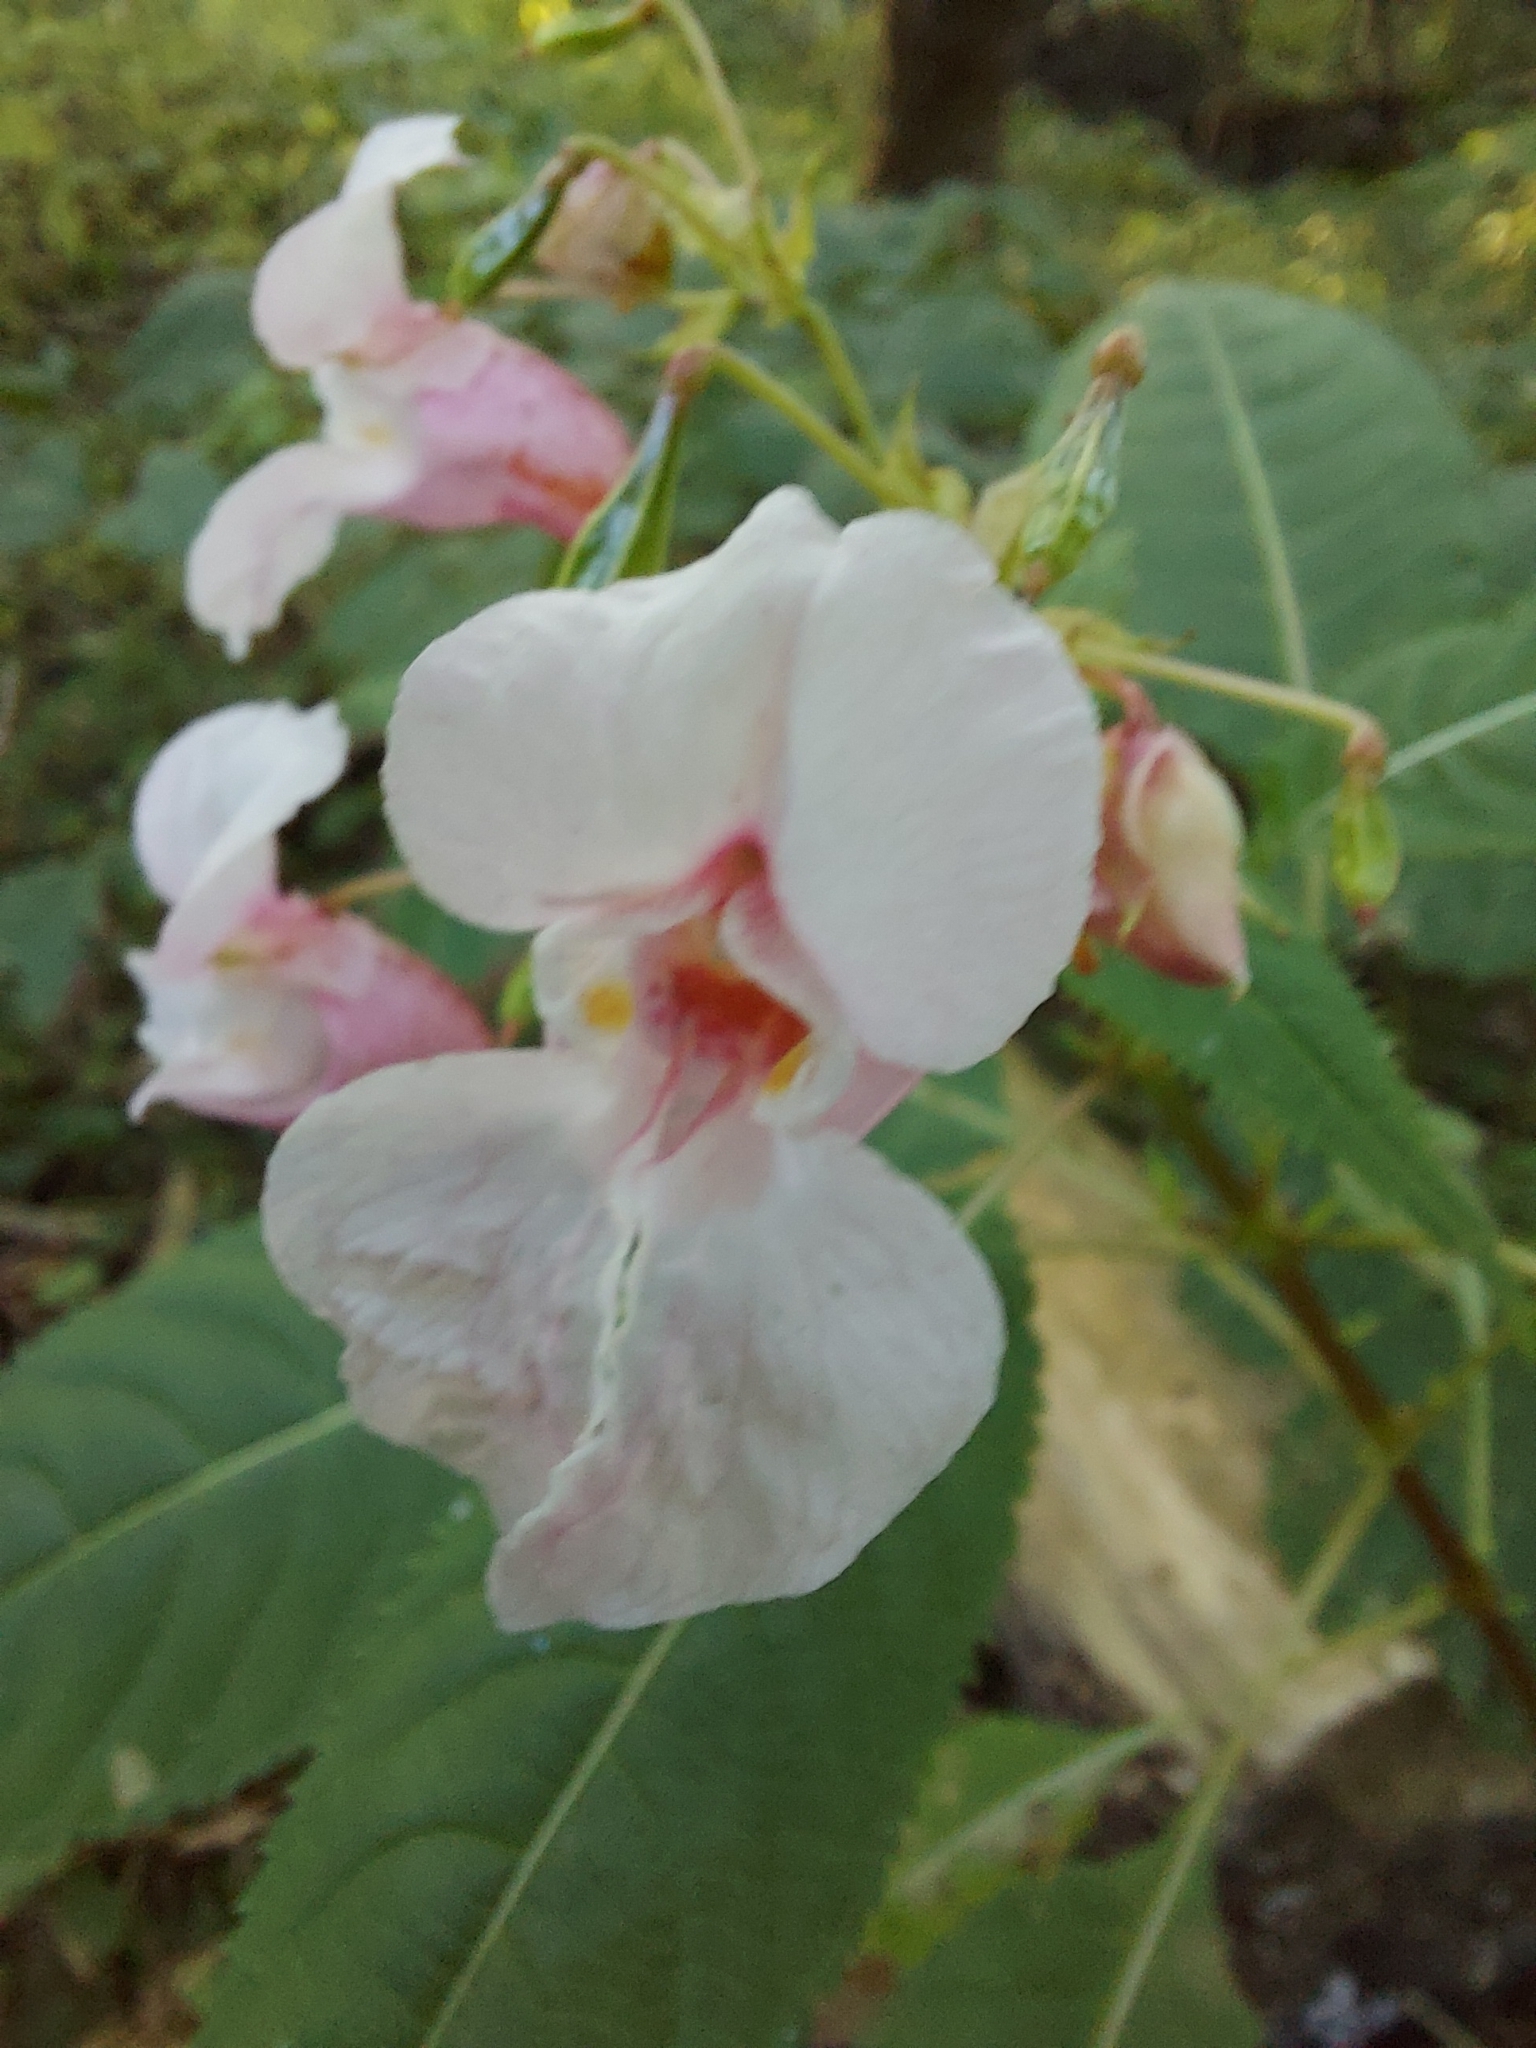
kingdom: Plantae
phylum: Tracheophyta
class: Magnoliopsida
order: Ericales
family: Balsaminaceae
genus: Impatiens
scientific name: Impatiens glandulifera
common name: Himalayan balsam
